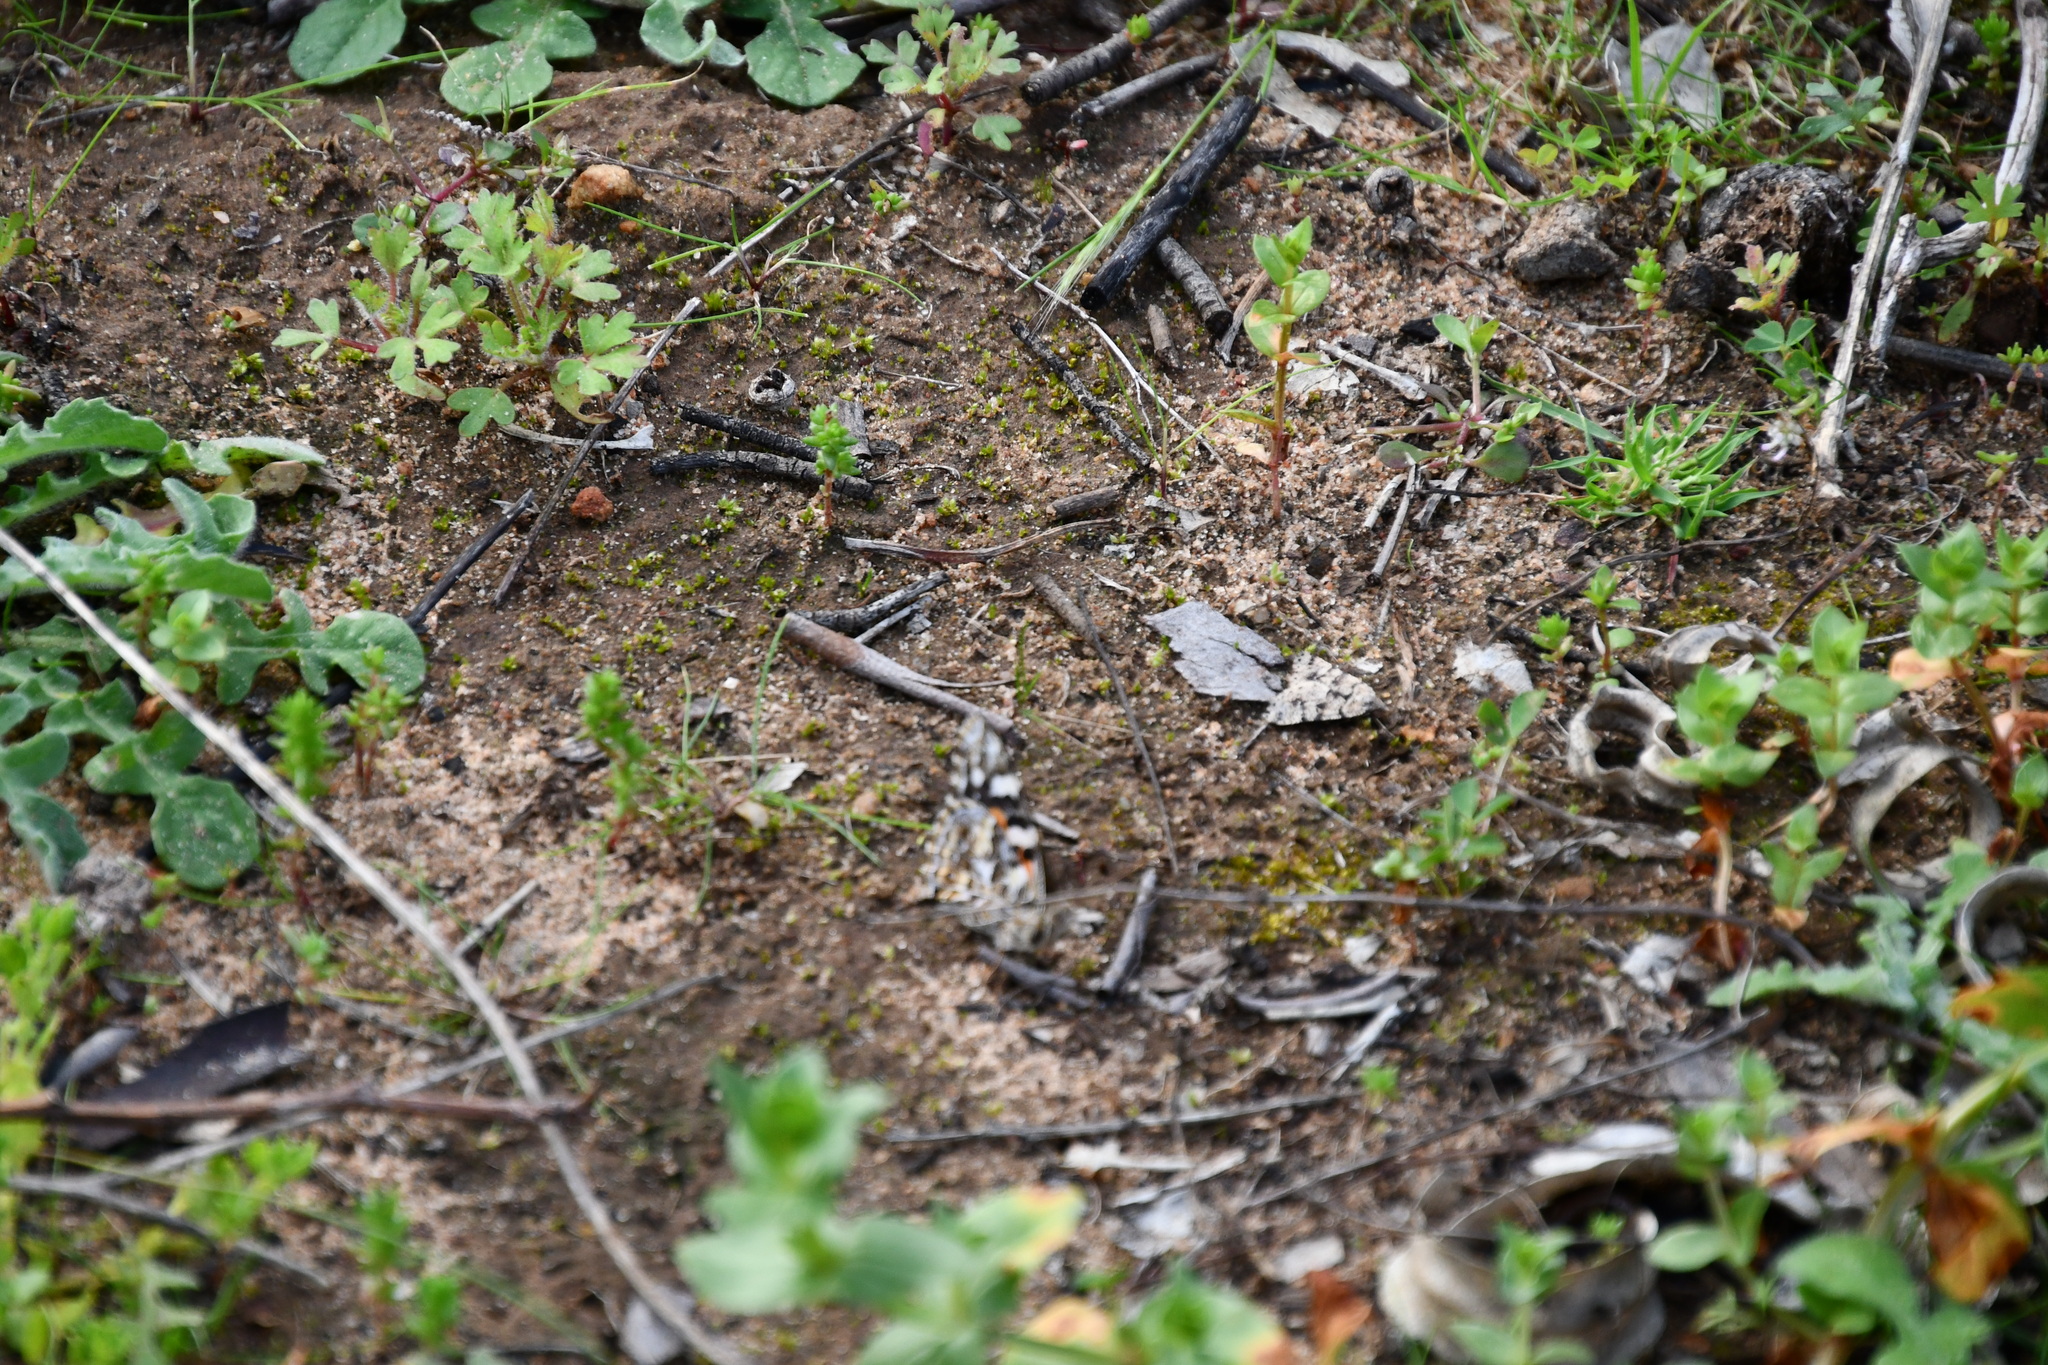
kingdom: Animalia
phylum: Arthropoda
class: Insecta
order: Lepidoptera
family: Nymphalidae
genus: Vanessa
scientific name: Vanessa kershawi
